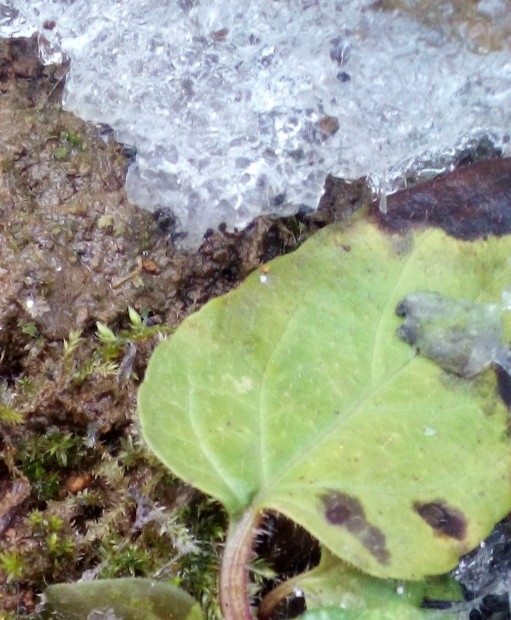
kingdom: Plantae
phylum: Tracheophyta
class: Magnoliopsida
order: Lamiales
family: Lamiaceae
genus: Prunella
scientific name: Prunella vulgaris
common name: Heal-all
